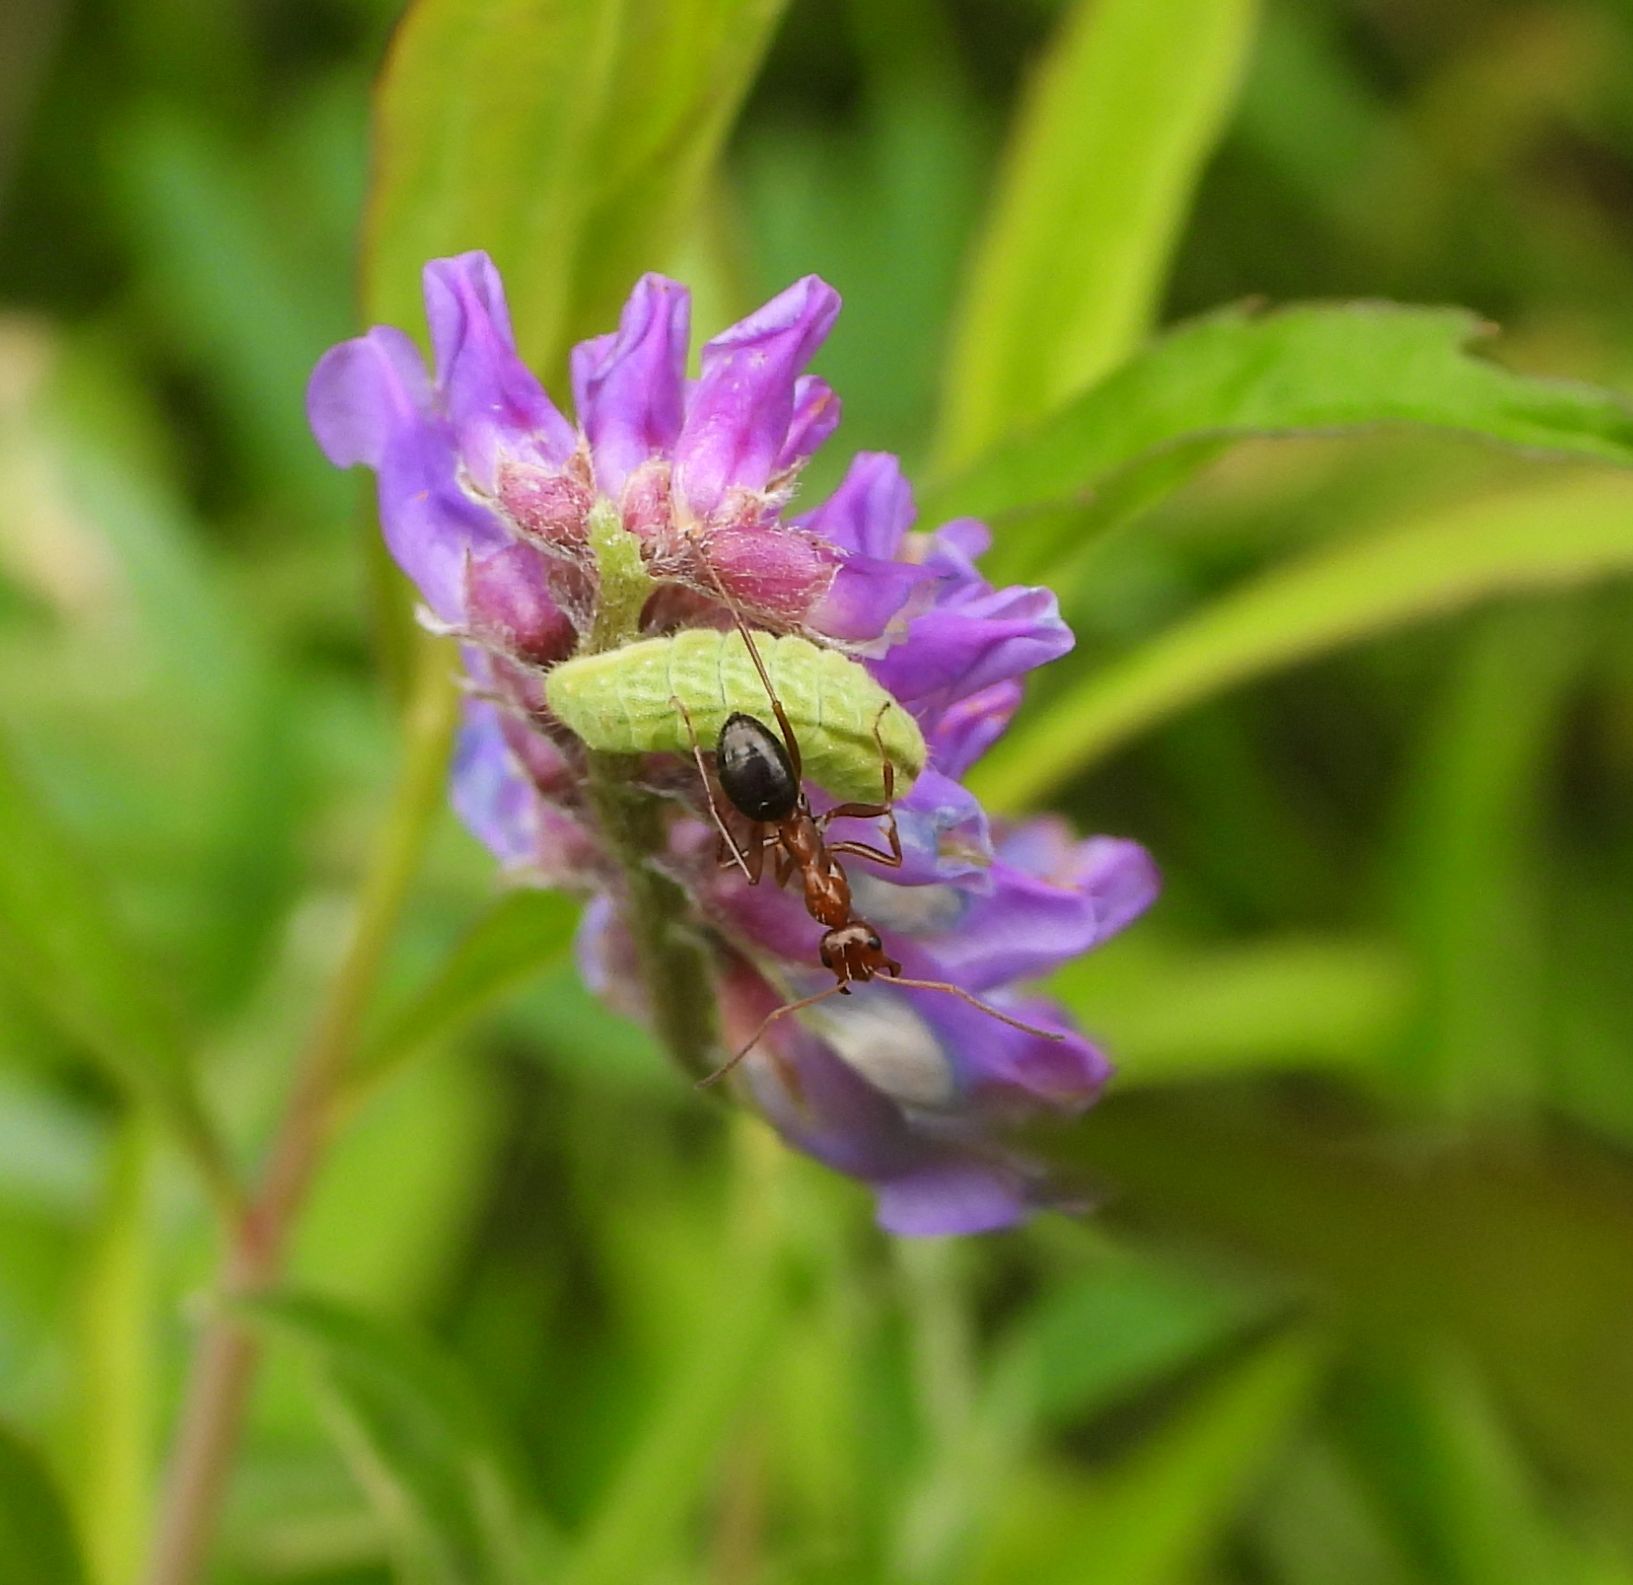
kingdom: Animalia
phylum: Arthropoda
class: Insecta
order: Lepidoptera
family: Lycaenidae
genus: Glaucopsyche
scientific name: Glaucopsyche lygdamus
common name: Silvery blue
